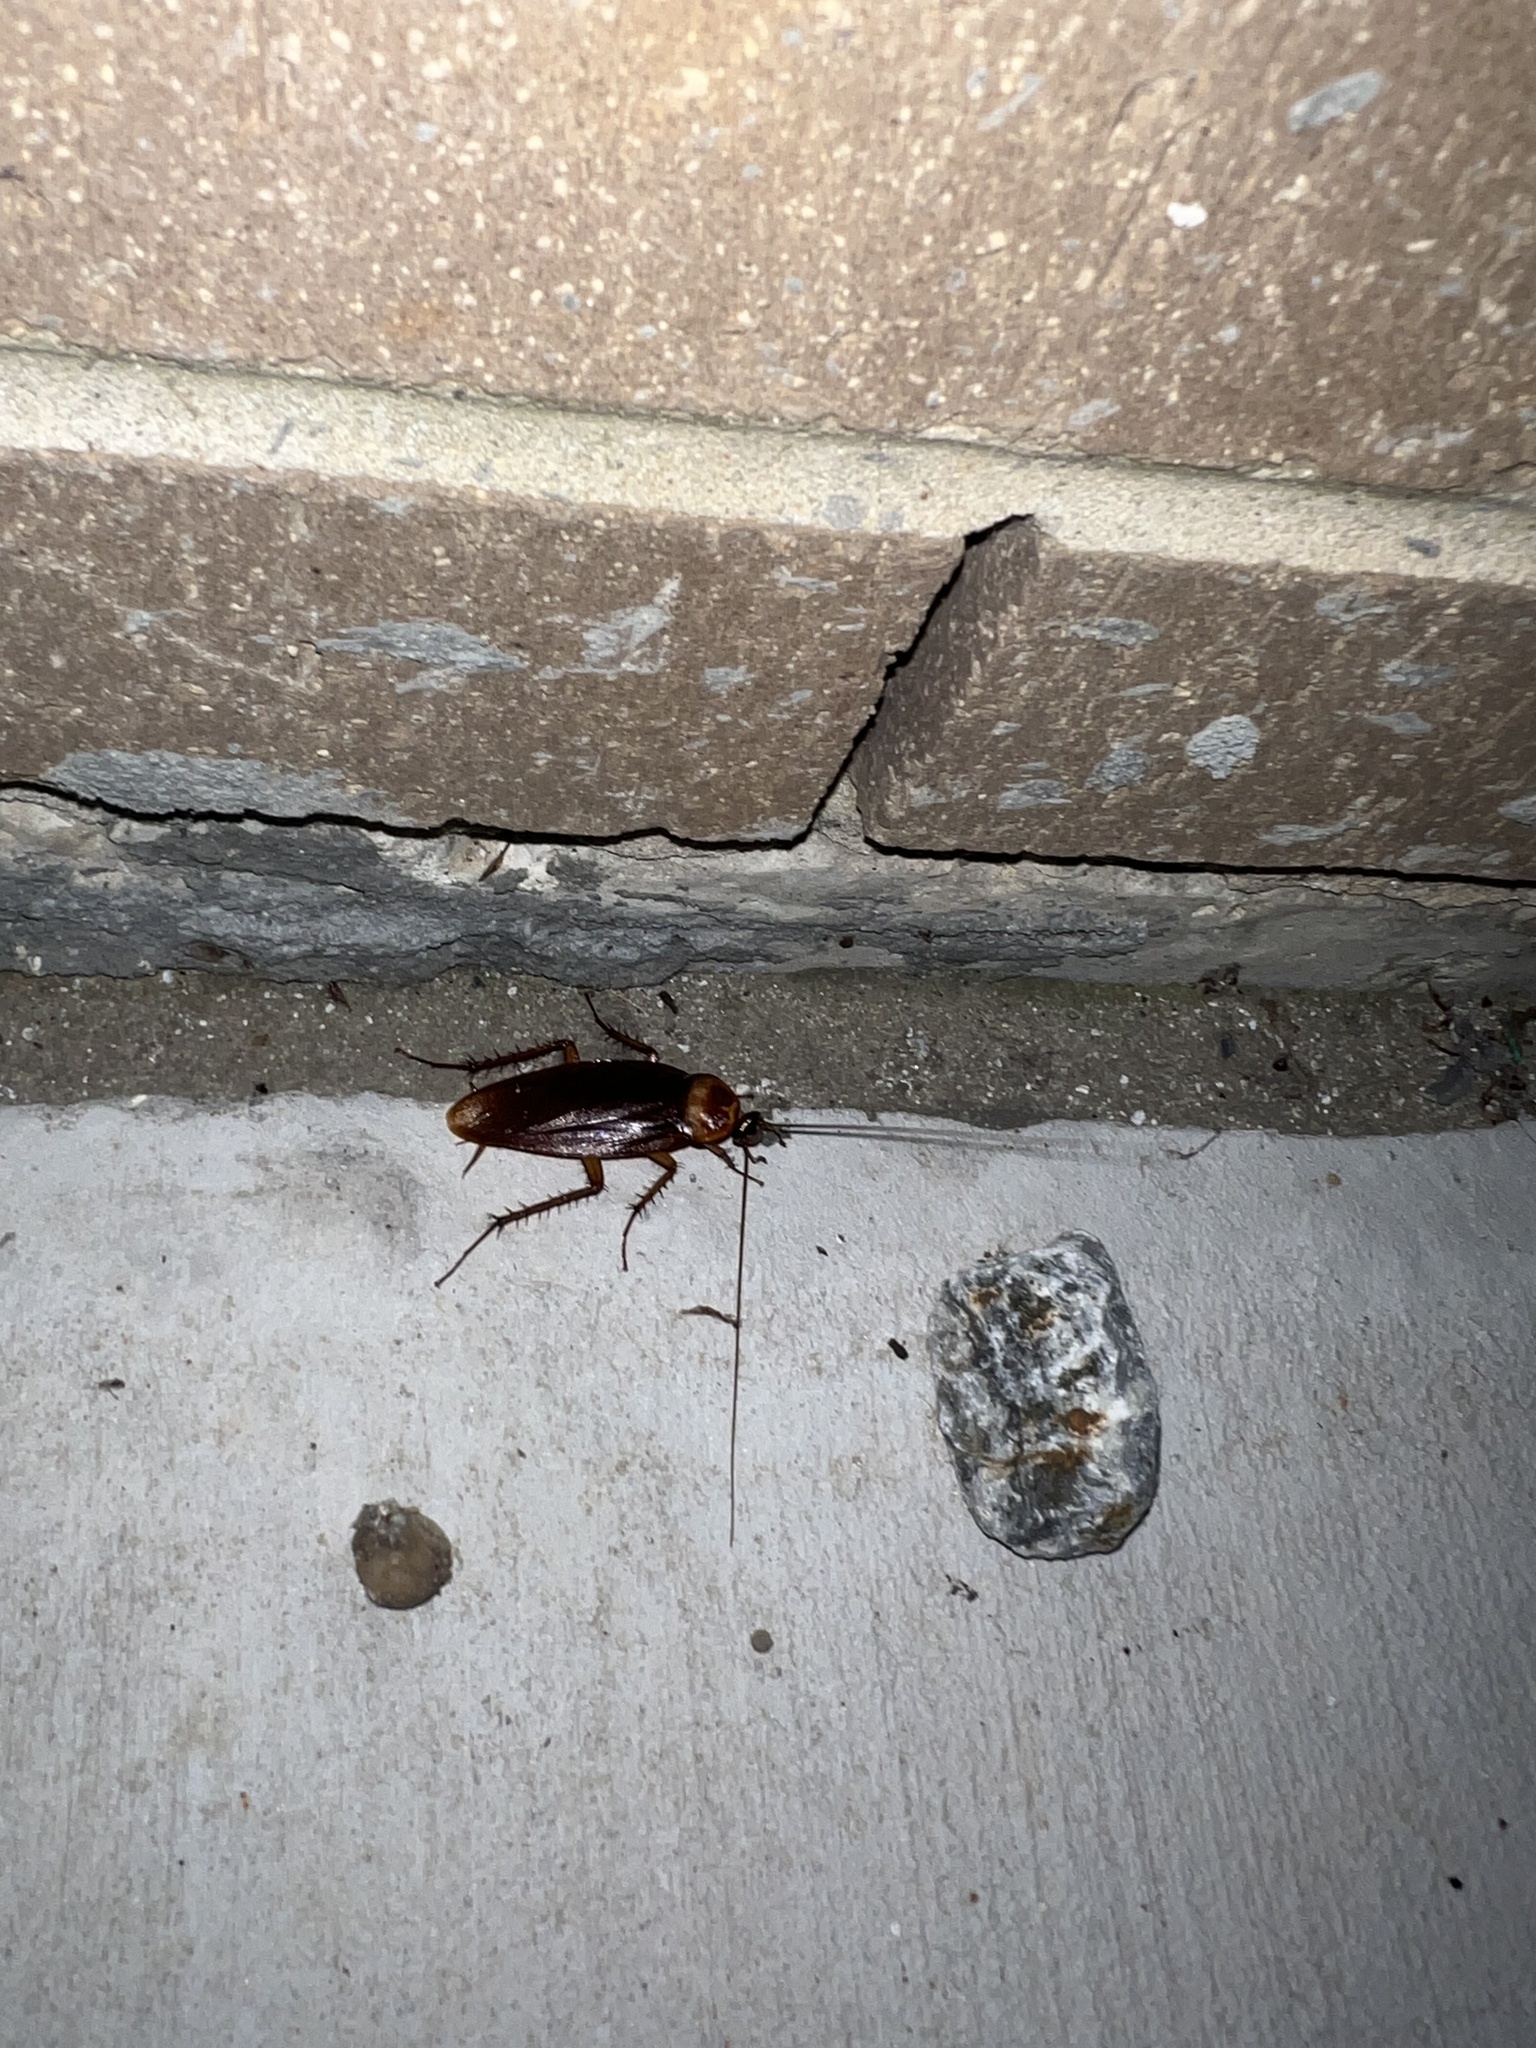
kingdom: Animalia
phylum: Arthropoda
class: Insecta
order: Blattodea
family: Blattidae
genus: Periplaneta
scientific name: Periplaneta americana
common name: American cockroach
